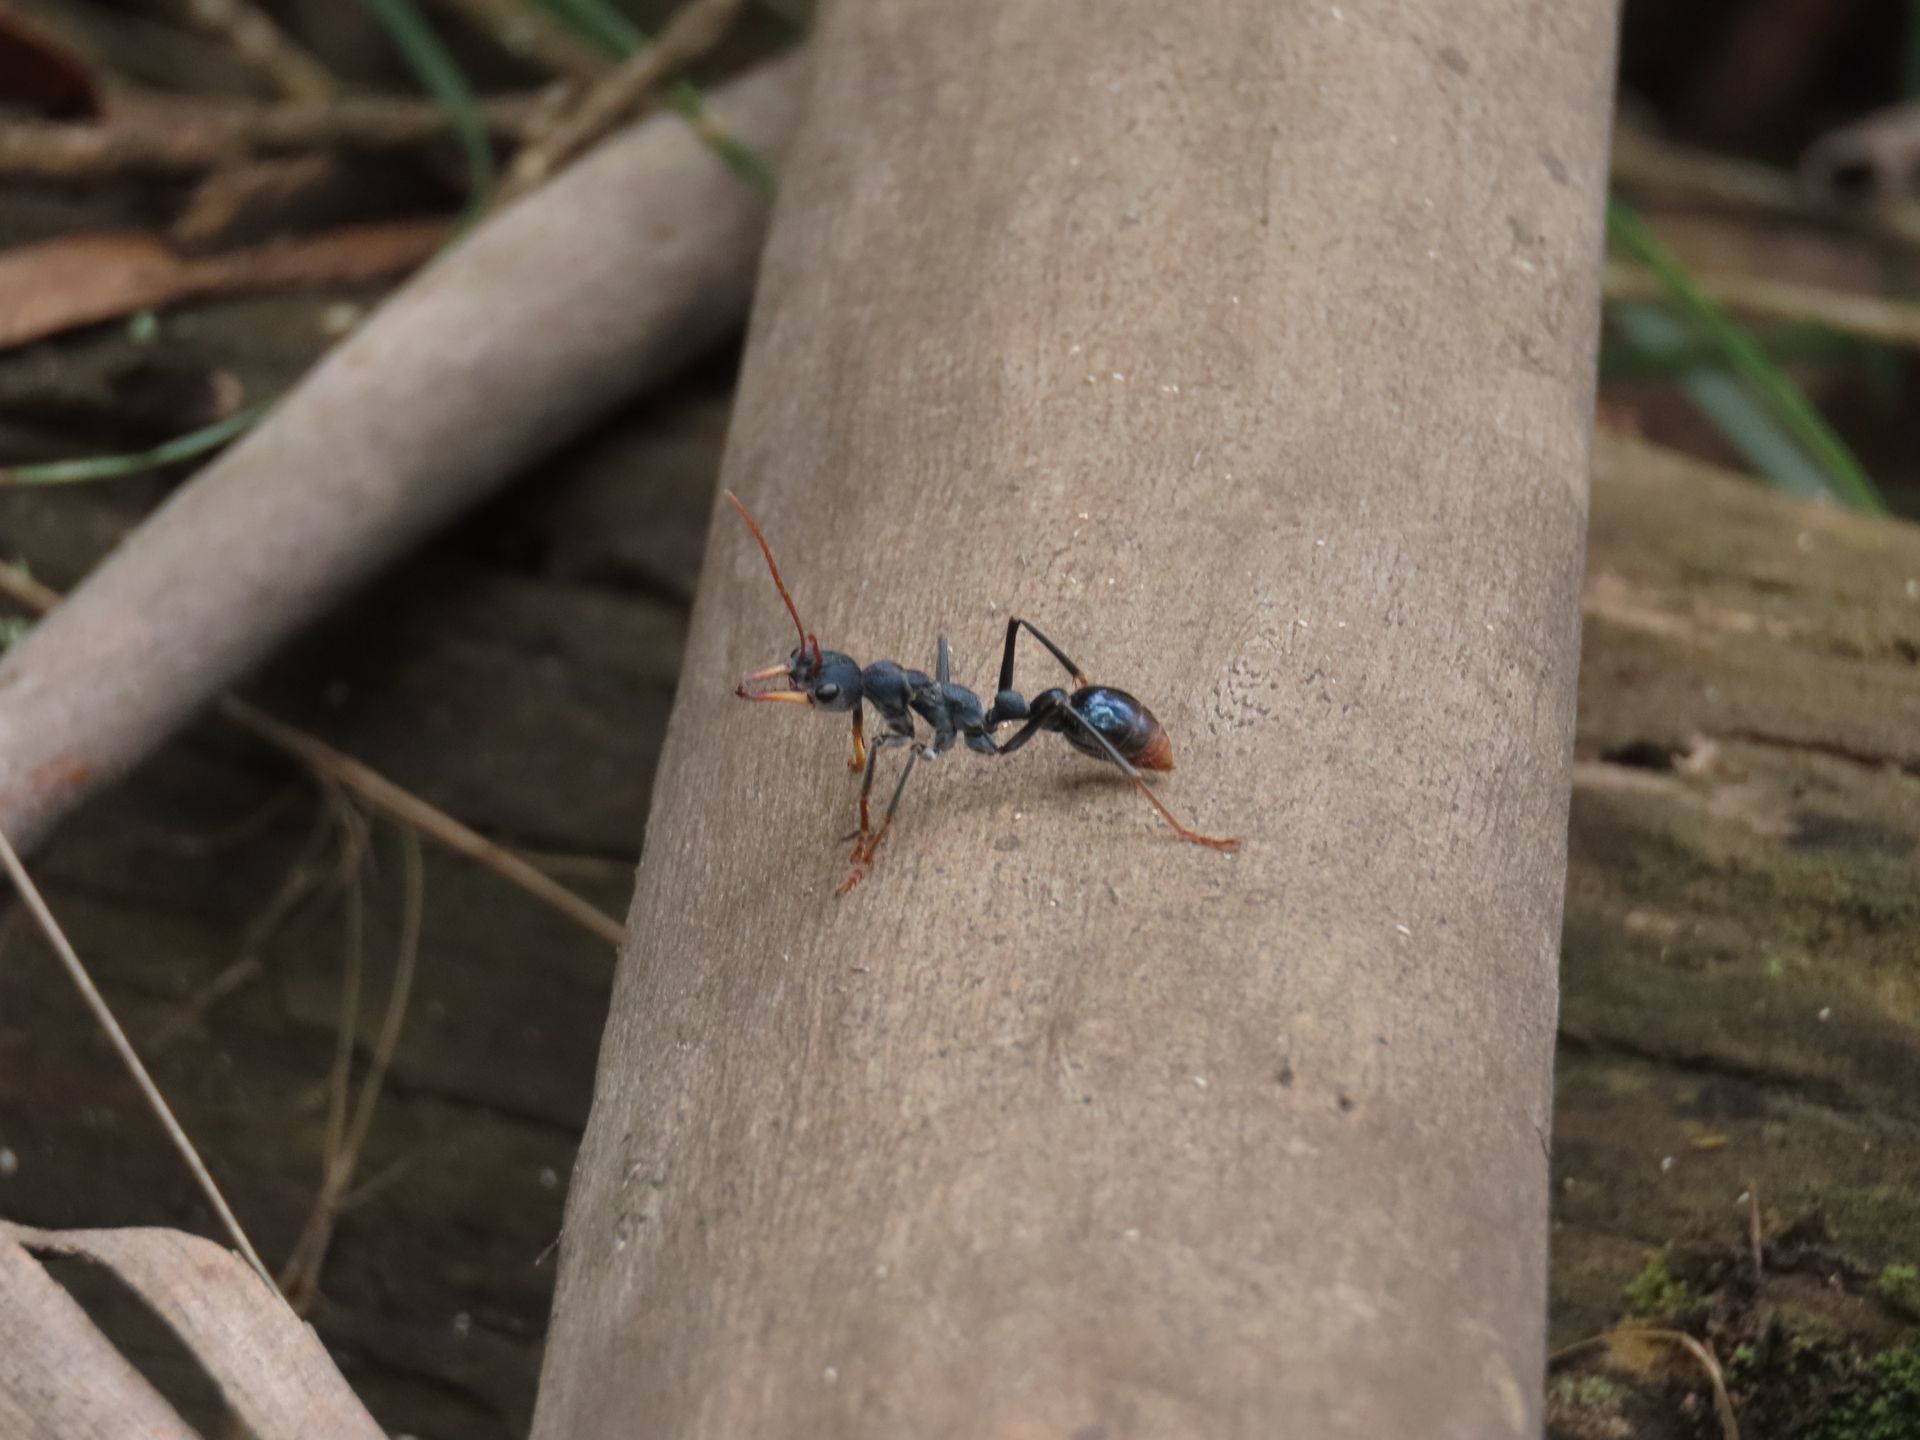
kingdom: Animalia
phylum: Arthropoda
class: Insecta
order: Hymenoptera
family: Formicidae
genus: Myrmecia
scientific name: Myrmecia tarsata
